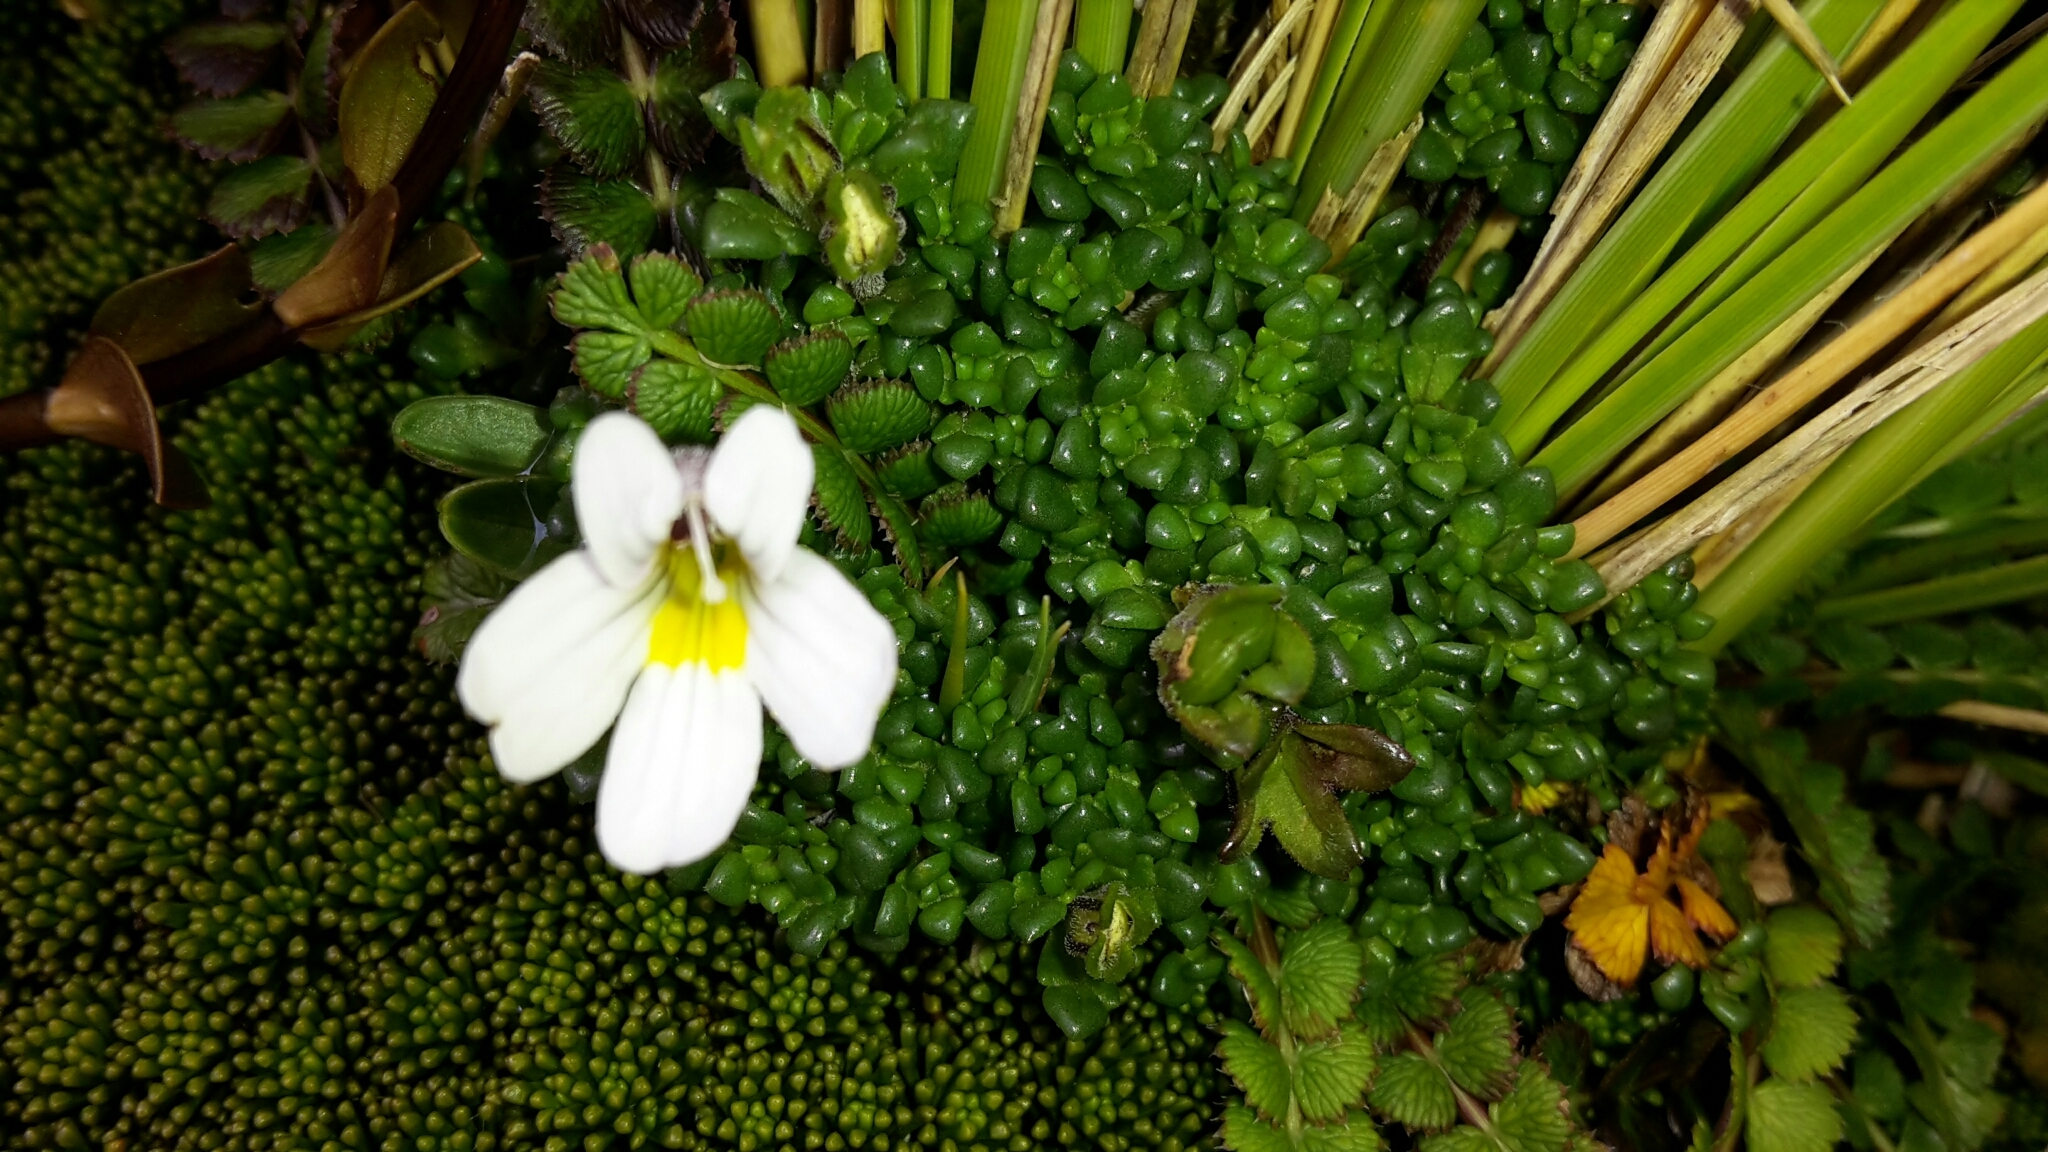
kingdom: Plantae
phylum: Tracheophyta
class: Magnoliopsida
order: Lamiales
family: Orobanchaceae
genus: Euphrasia
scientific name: Euphrasia revoluta
